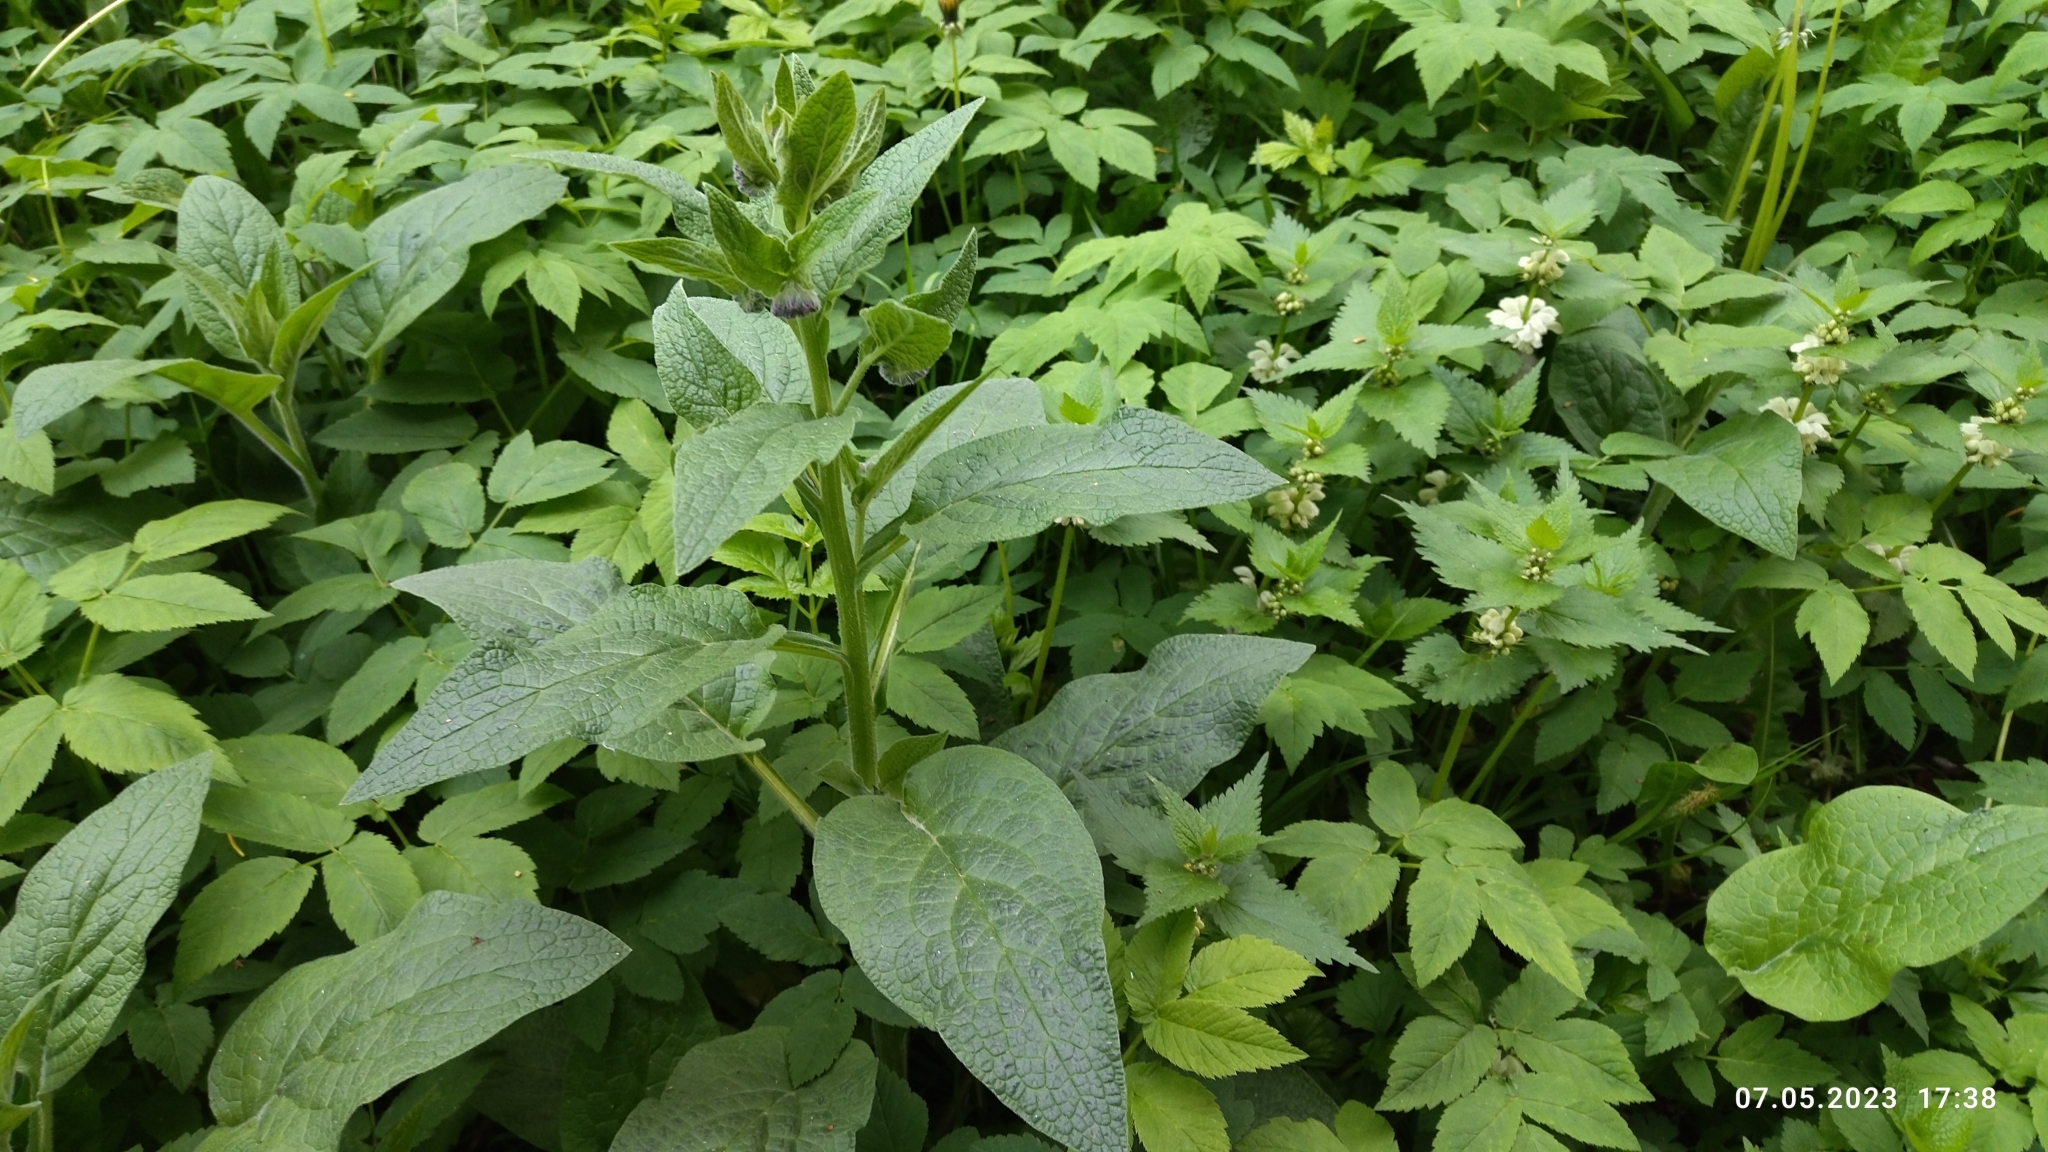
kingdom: Plantae
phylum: Tracheophyta
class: Magnoliopsida
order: Boraginales
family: Boraginaceae
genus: Symphytum
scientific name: Symphytum
